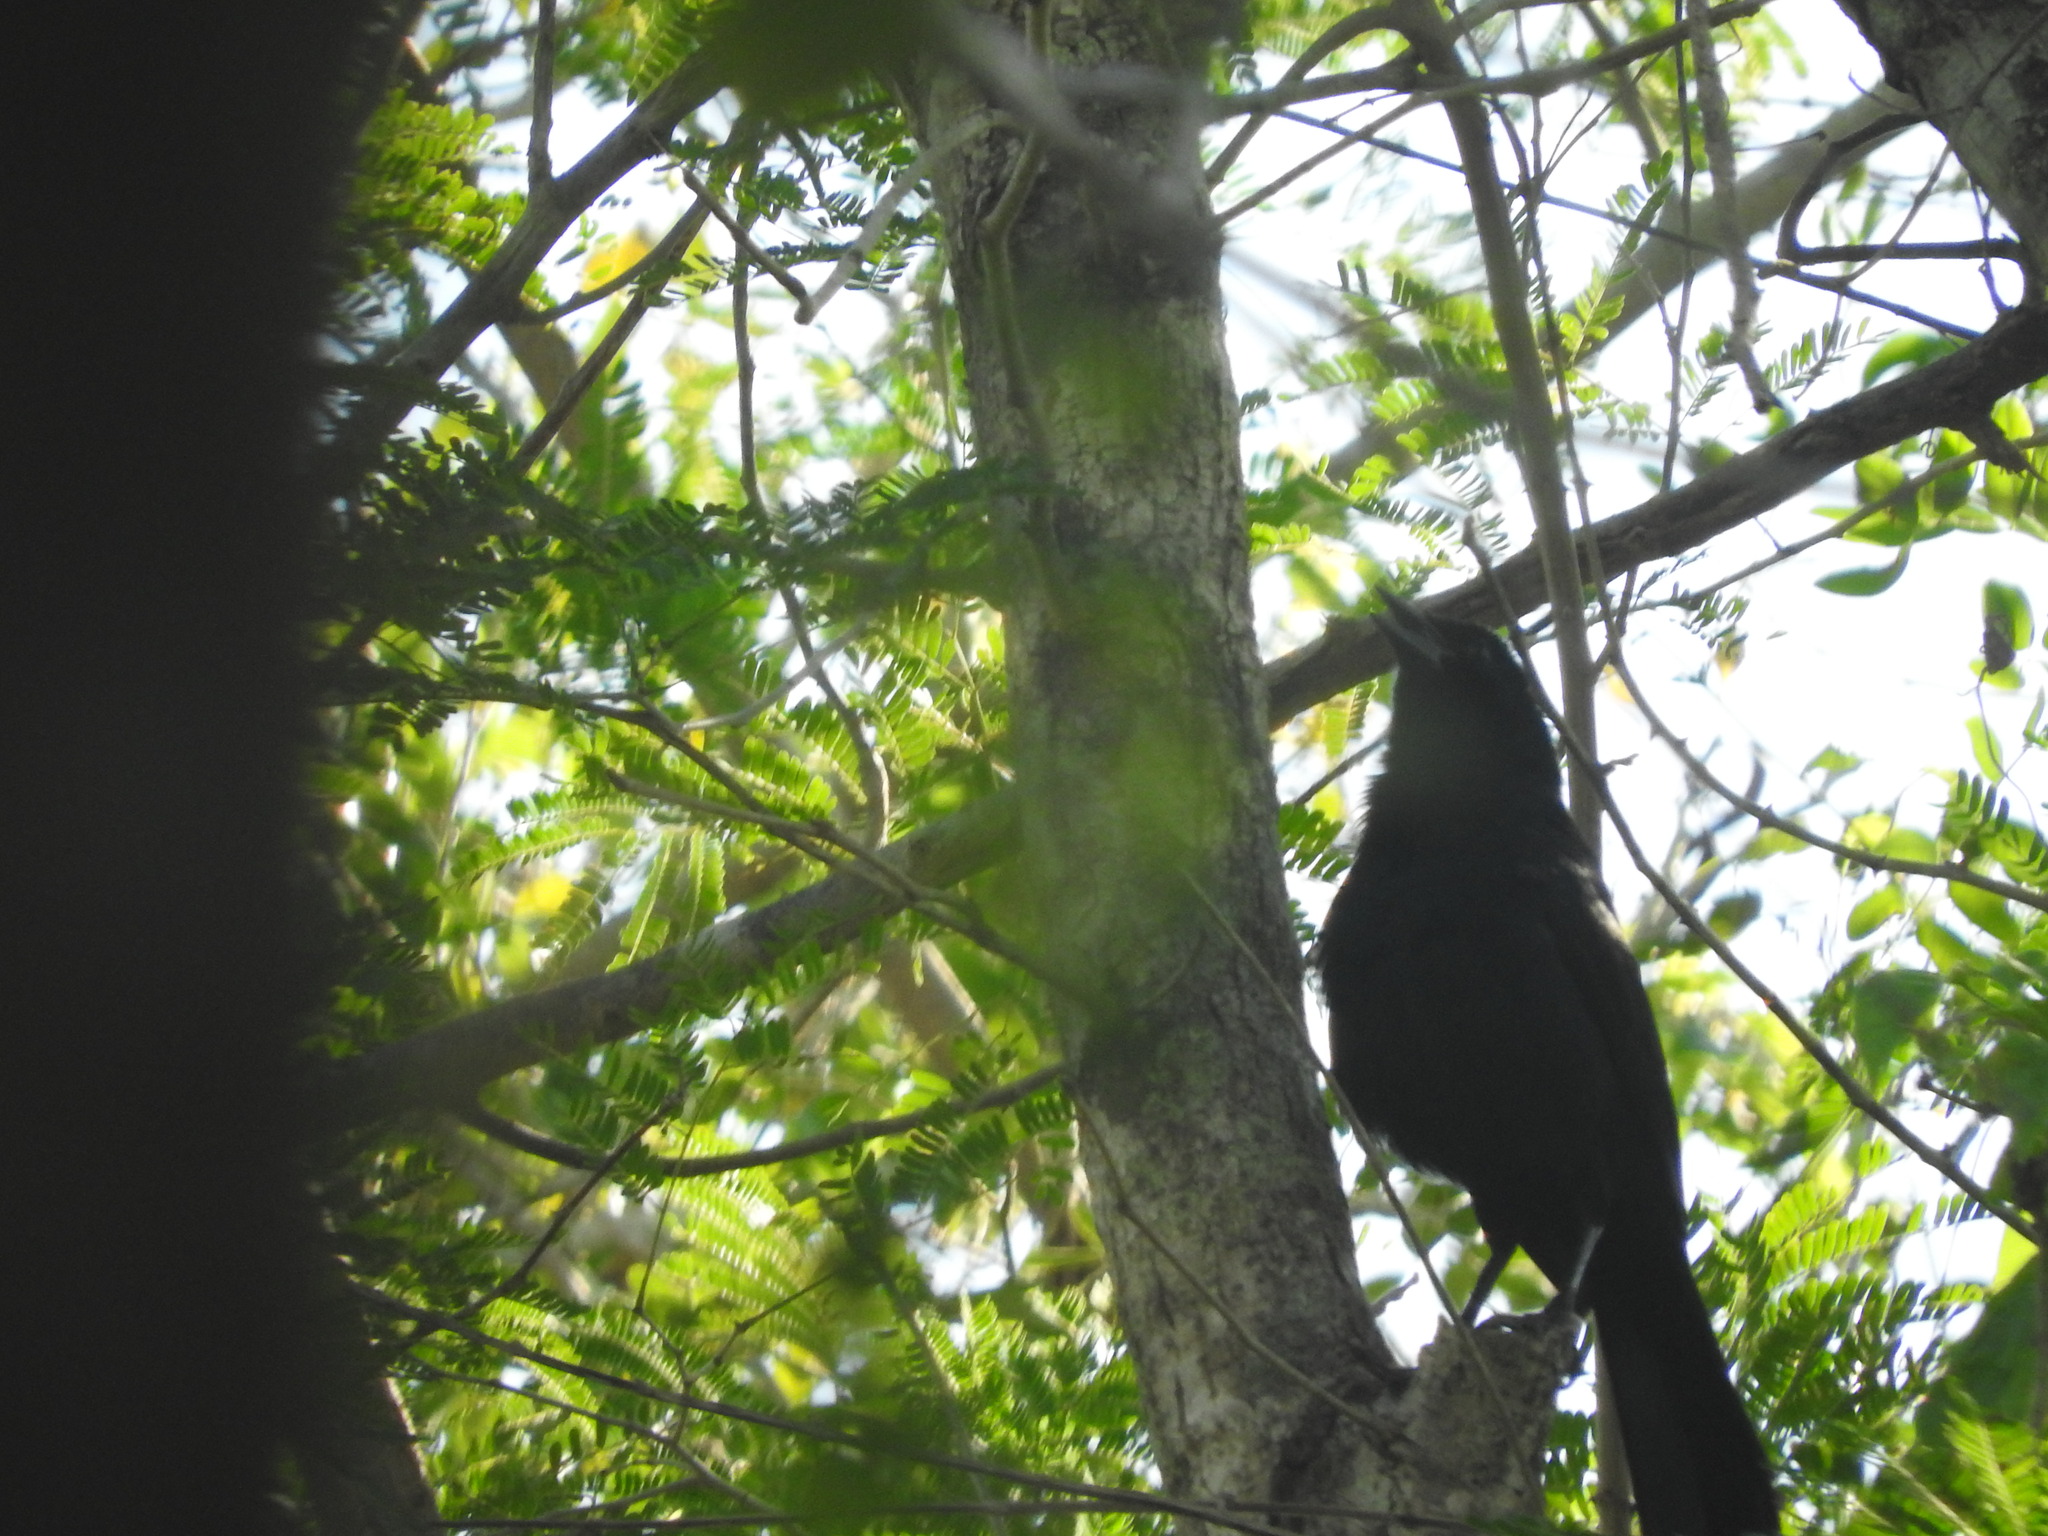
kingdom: Animalia
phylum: Chordata
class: Aves
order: Passeriformes
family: Icteridae
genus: Dives
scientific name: Dives dives
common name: Melodious blackbird
